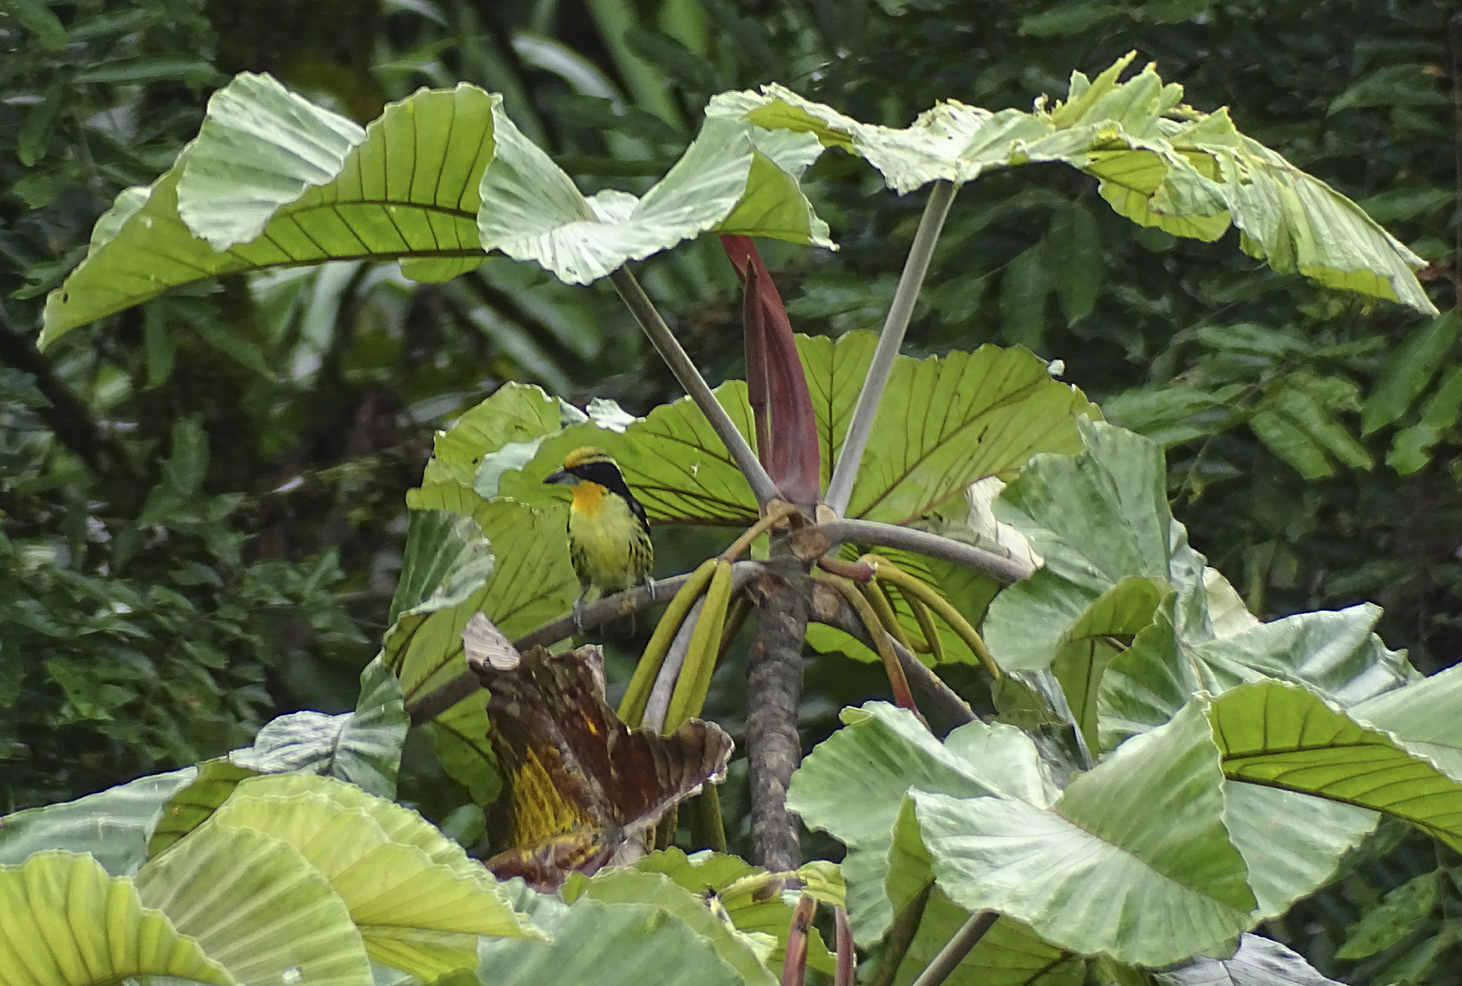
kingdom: Animalia
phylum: Chordata
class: Aves
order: Piciformes
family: Capitonidae
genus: Capito
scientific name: Capito auratus
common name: Gilded barbet
